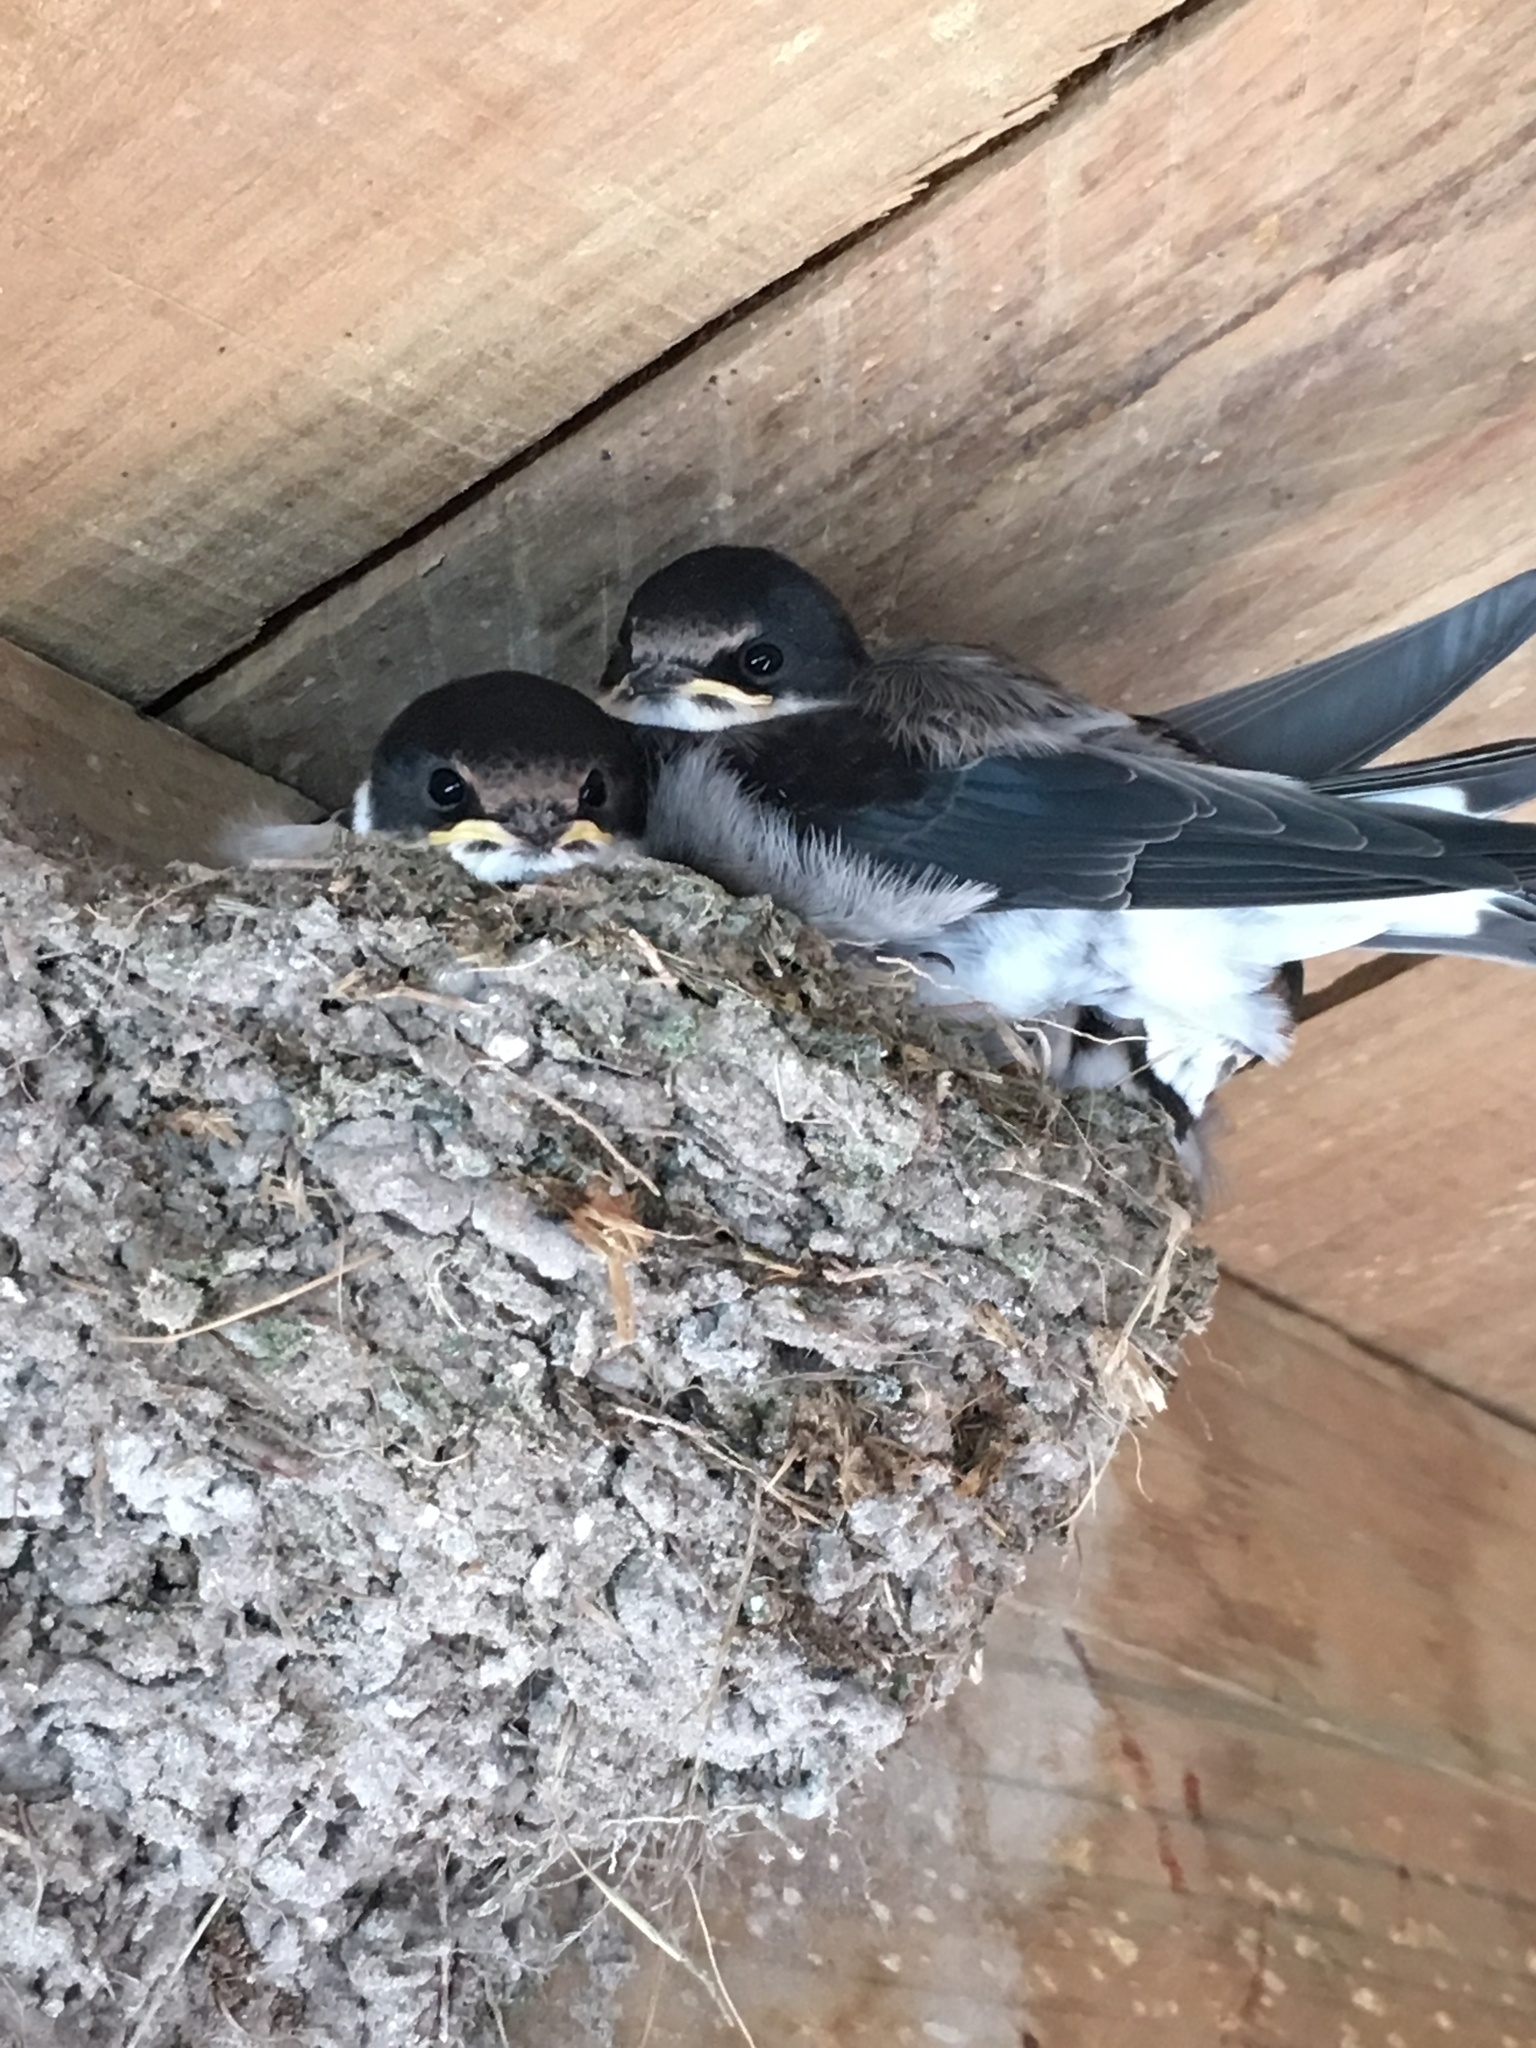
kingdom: Animalia
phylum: Chordata
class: Aves
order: Passeriformes
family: Hirundinidae
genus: Hirundo
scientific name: Hirundo albigularis
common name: White-throated swallow
